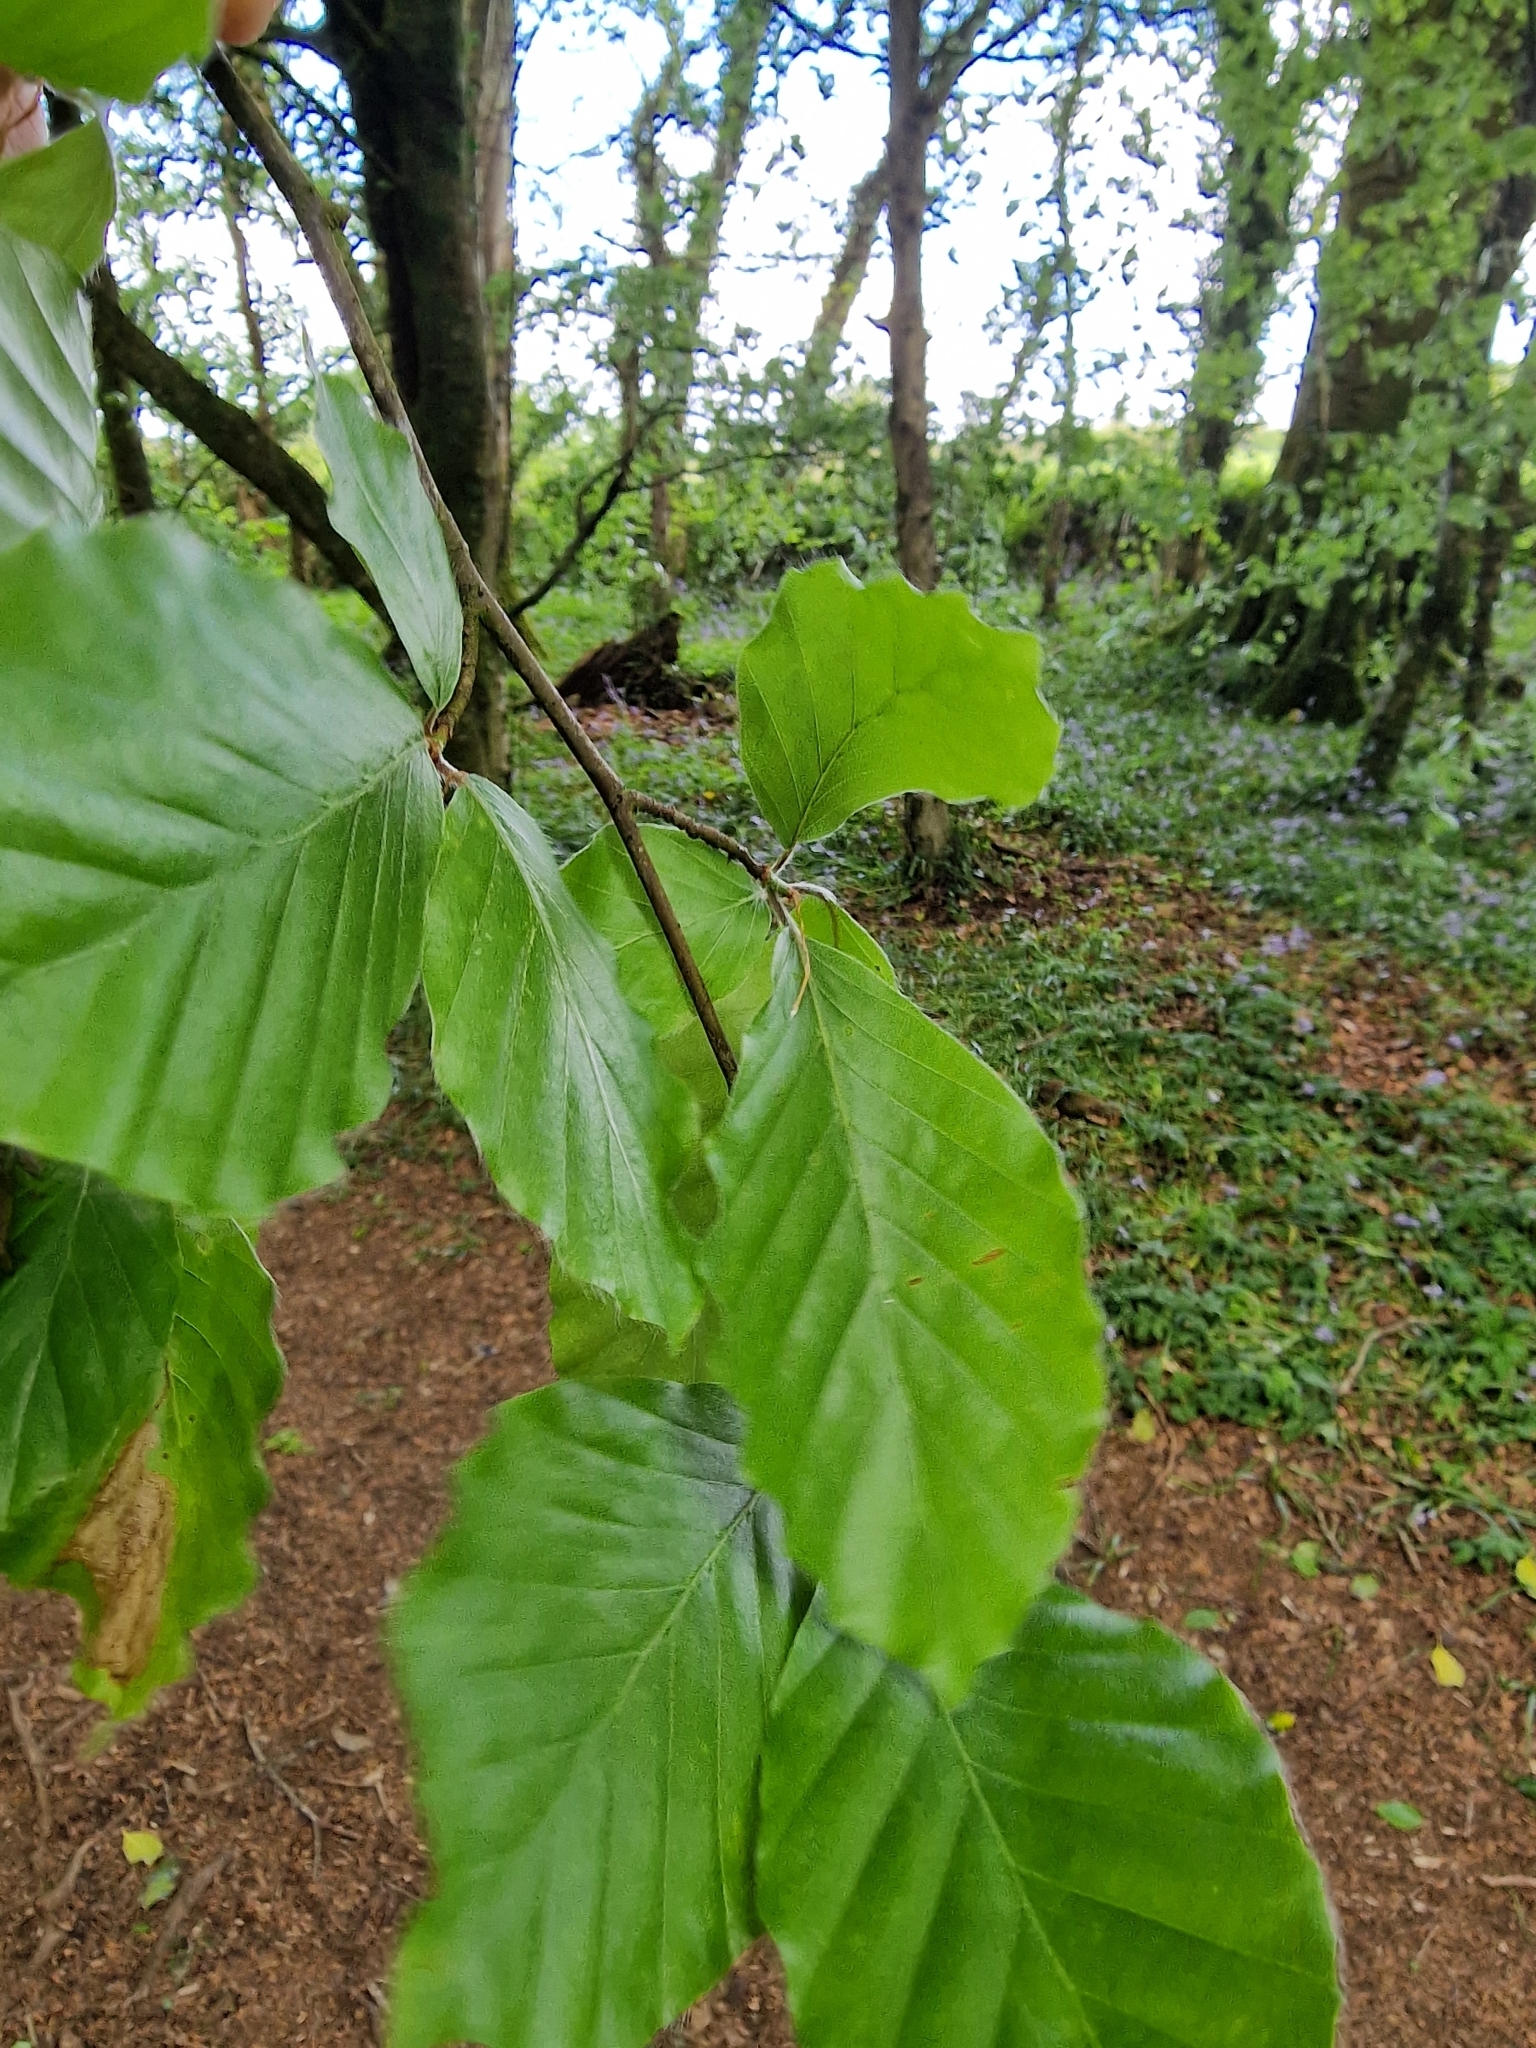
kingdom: Plantae
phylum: Tracheophyta
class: Magnoliopsida
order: Fagales
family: Fagaceae
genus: Fagus
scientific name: Fagus sylvatica
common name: Beech
